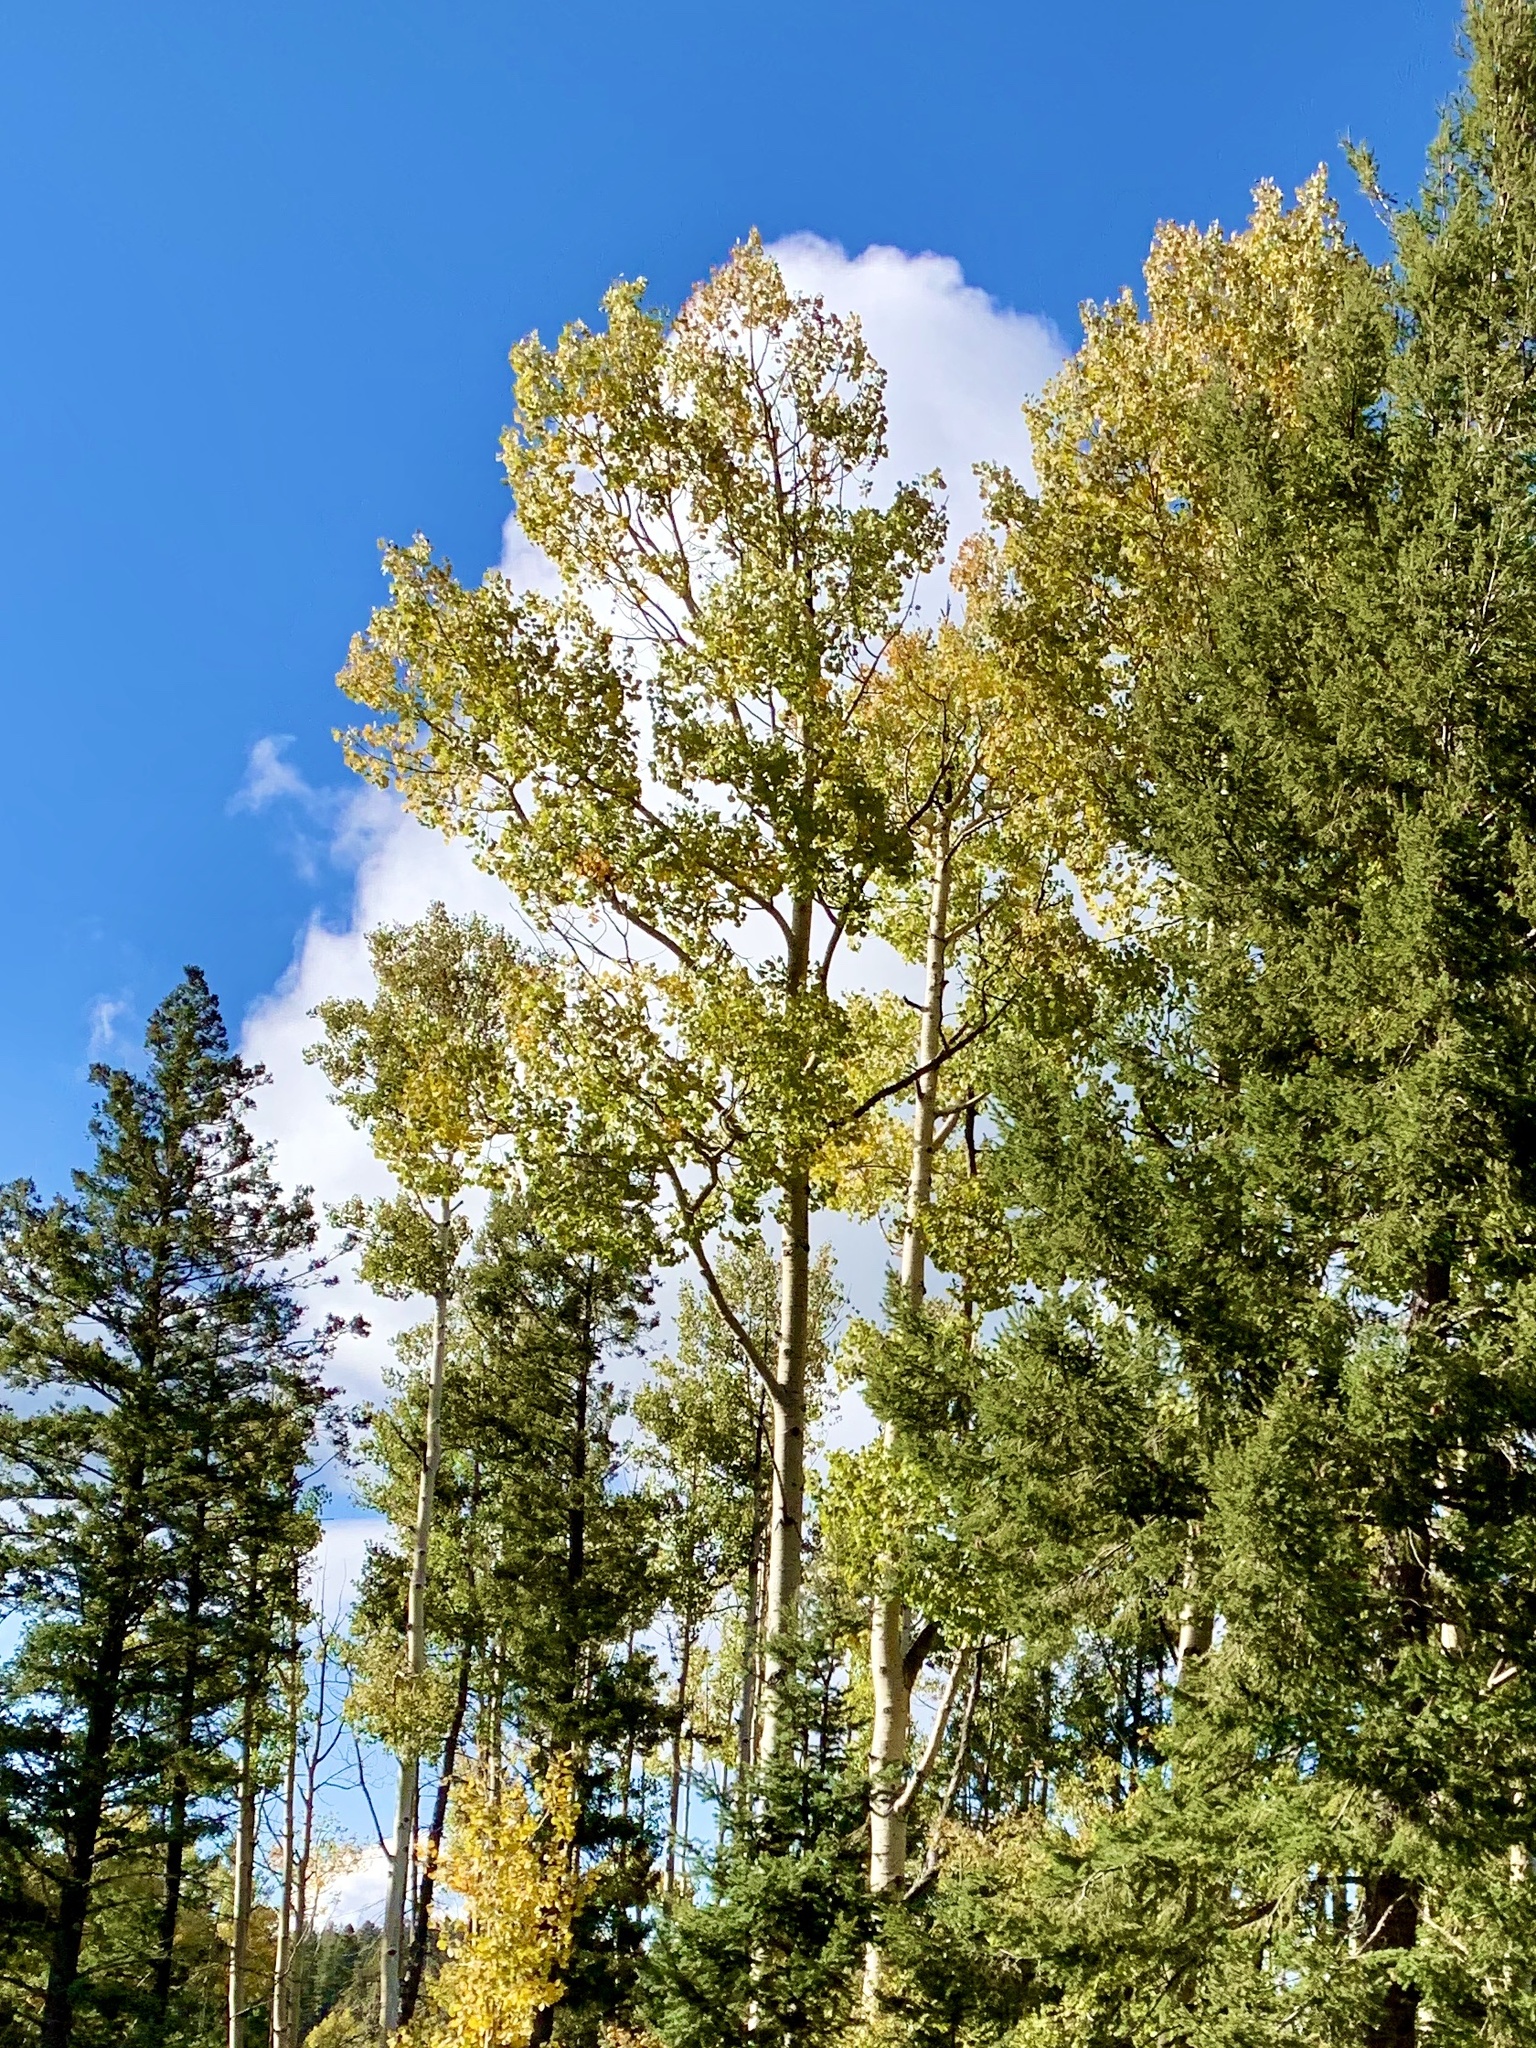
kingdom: Plantae
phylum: Tracheophyta
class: Magnoliopsida
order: Malpighiales
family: Salicaceae
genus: Populus
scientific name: Populus tremuloides
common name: Quaking aspen
